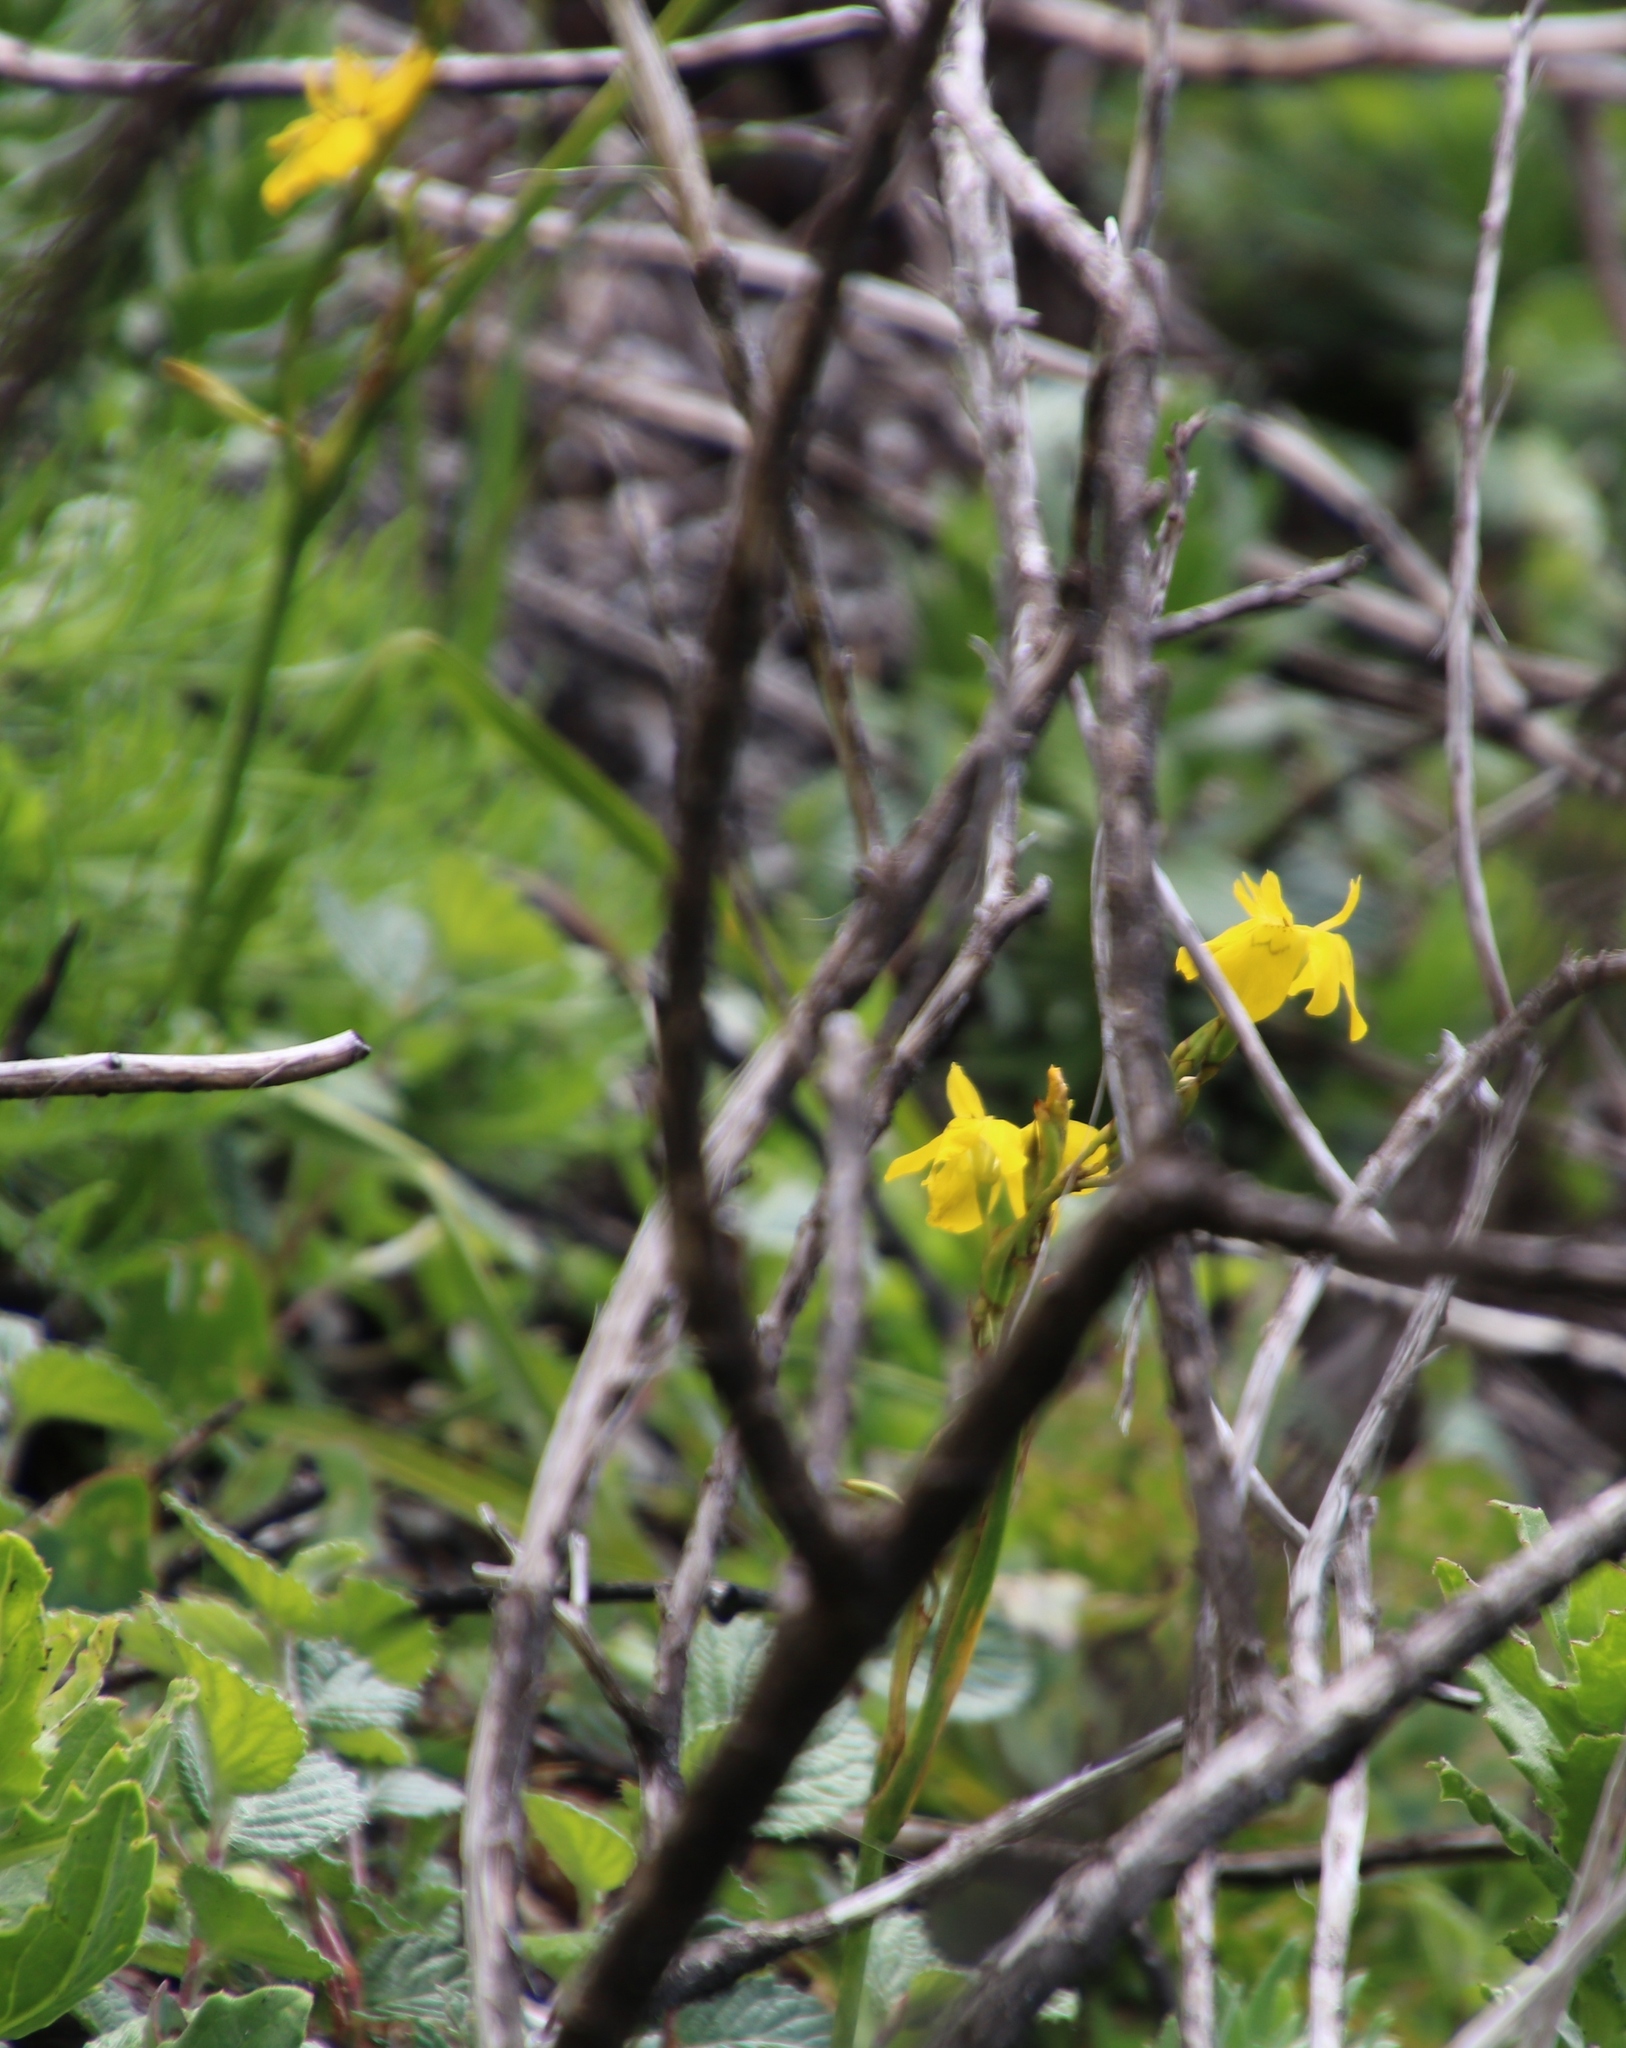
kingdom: Plantae
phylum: Tracheophyta
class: Liliopsida
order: Asparagales
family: Iridaceae
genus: Moraea
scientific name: Moraea ramosissima
